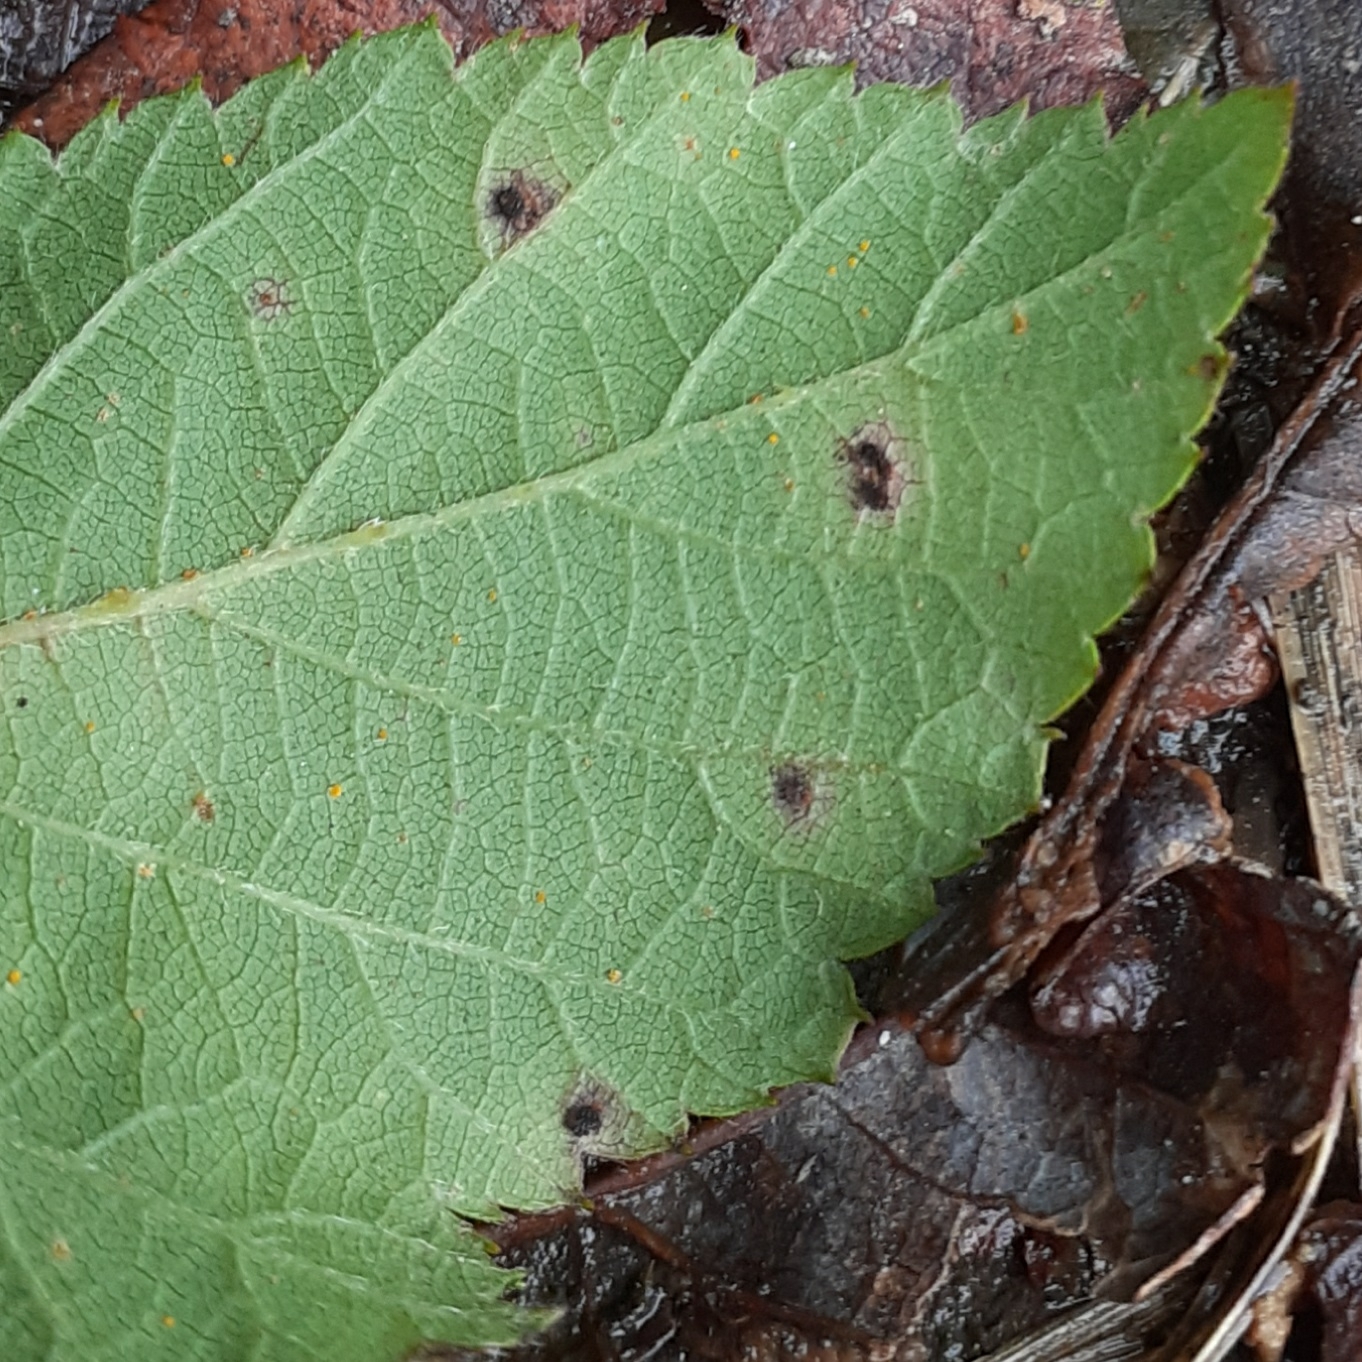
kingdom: Fungi
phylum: Basidiomycota
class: Pucciniomycetes
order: Pucciniales
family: Phragmidiaceae
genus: Phragmidium
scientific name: Phragmidium violaceum
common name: Violet bramble rust
